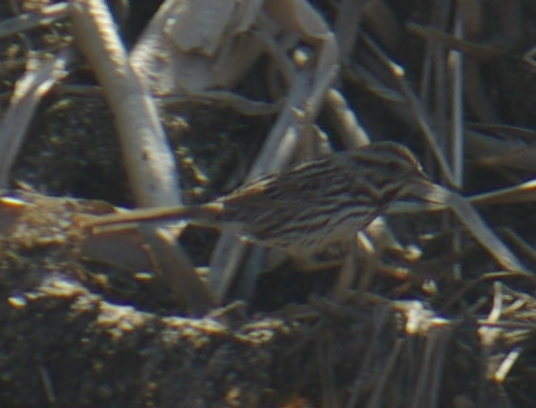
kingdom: Animalia
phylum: Chordata
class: Aves
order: Passeriformes
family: Passerellidae
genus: Melospiza
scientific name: Melospiza melodia
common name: Song sparrow
